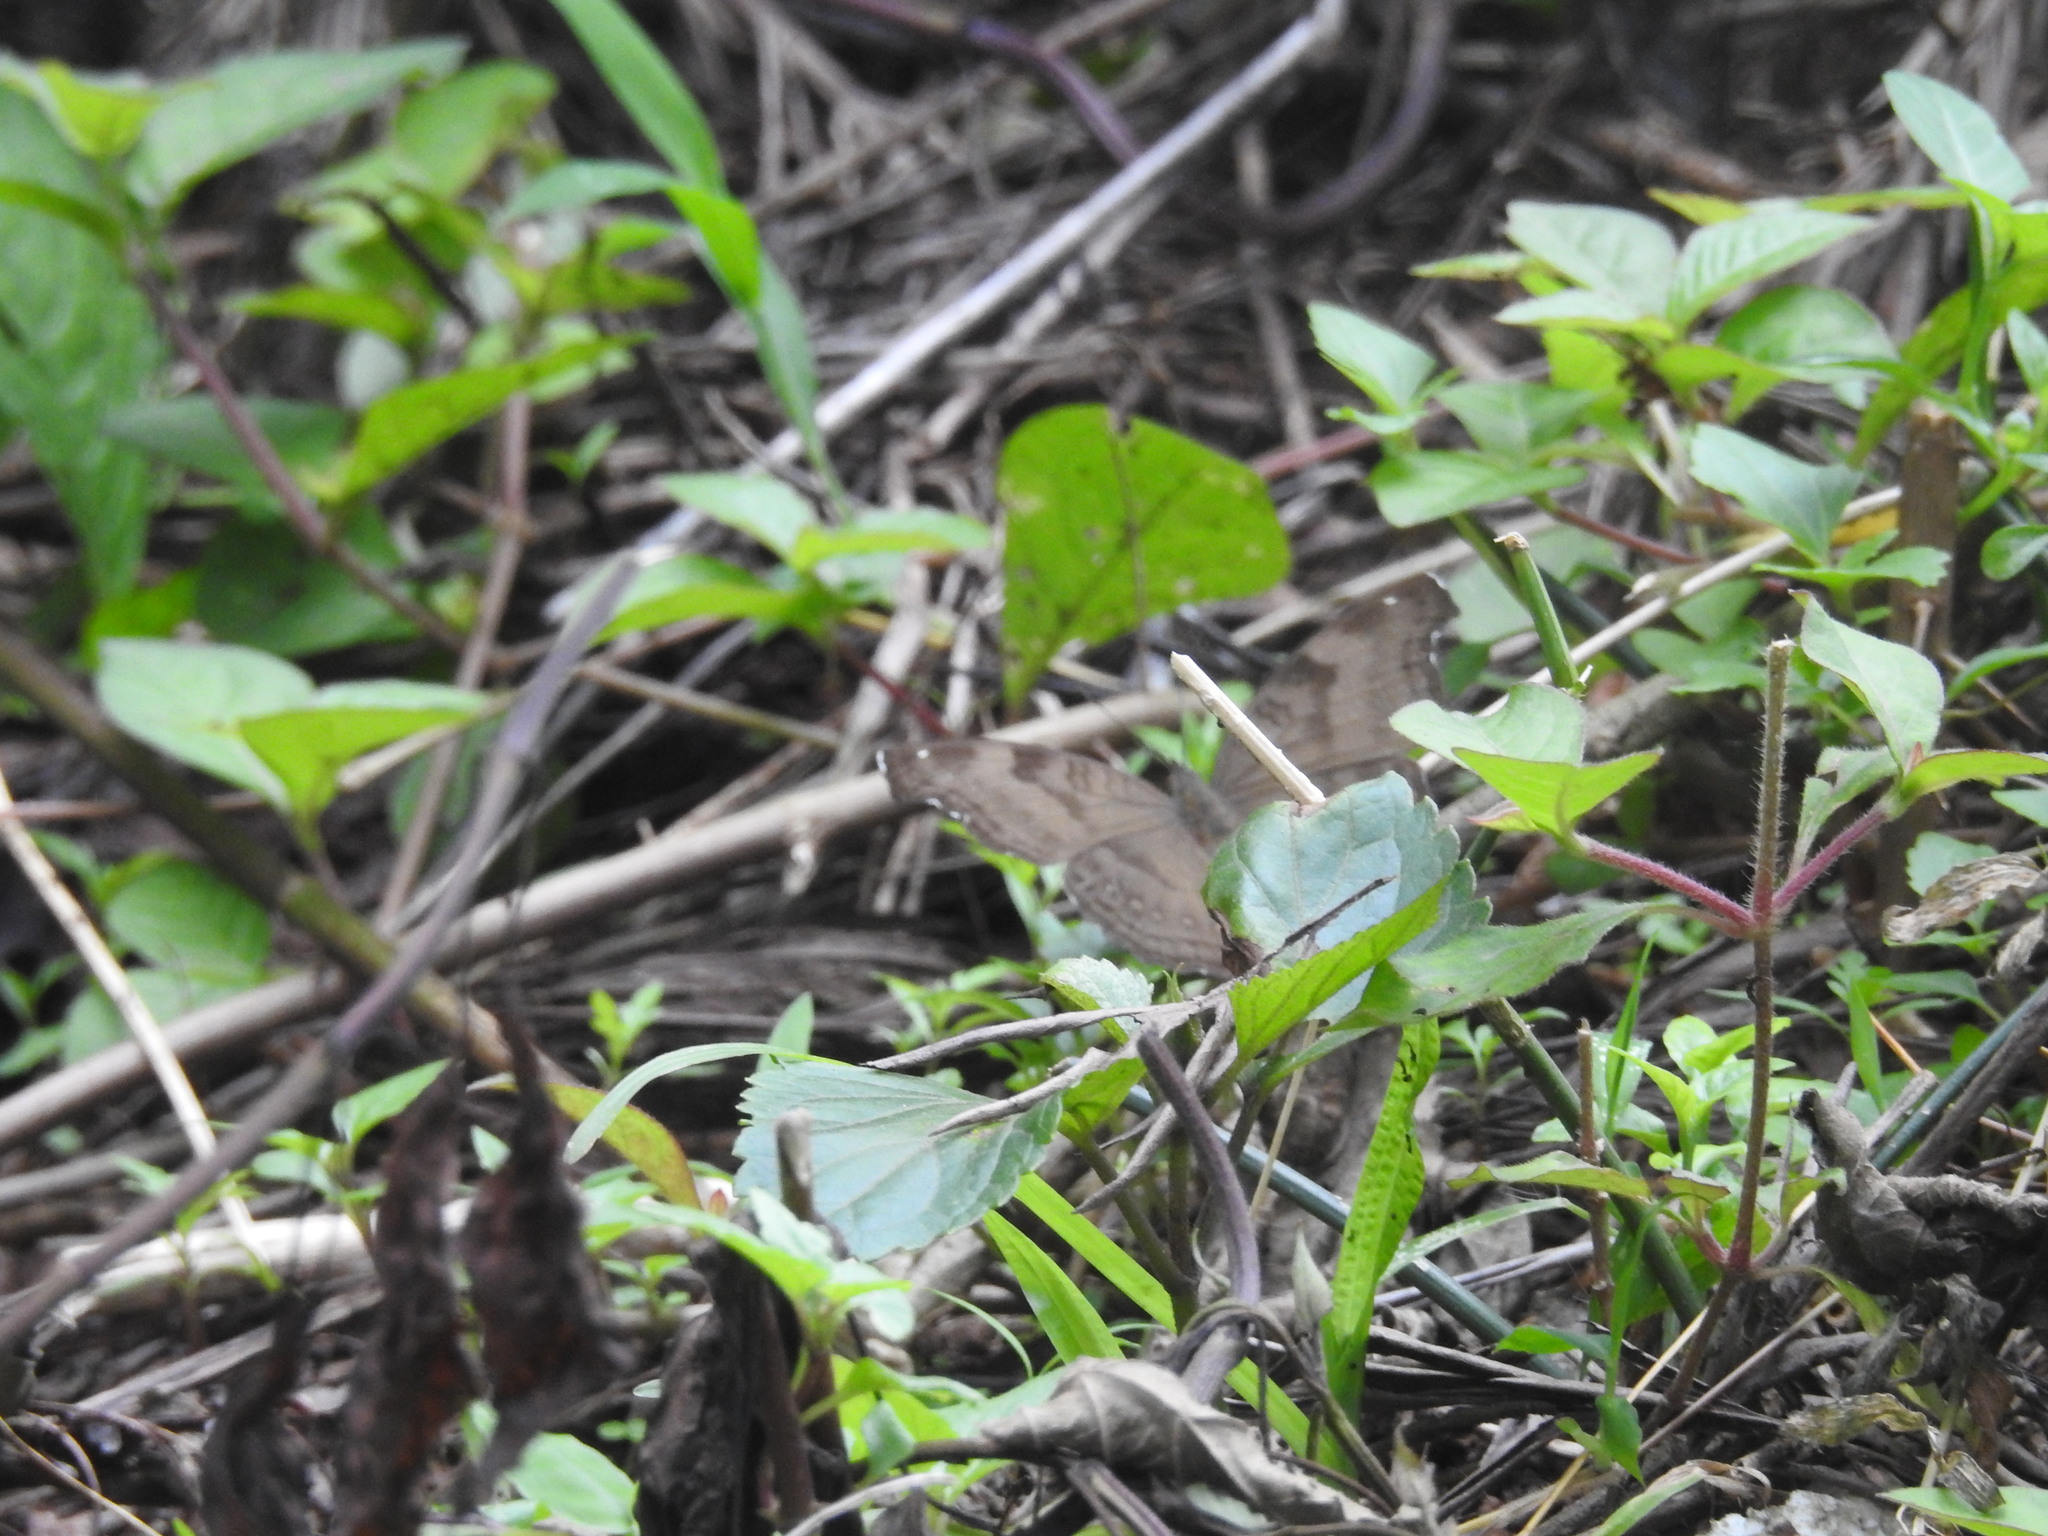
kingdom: Animalia
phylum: Arthropoda
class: Insecta
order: Lepidoptera
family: Nymphalidae
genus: Junonia
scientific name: Junonia iphita
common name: Chocolate pansy
